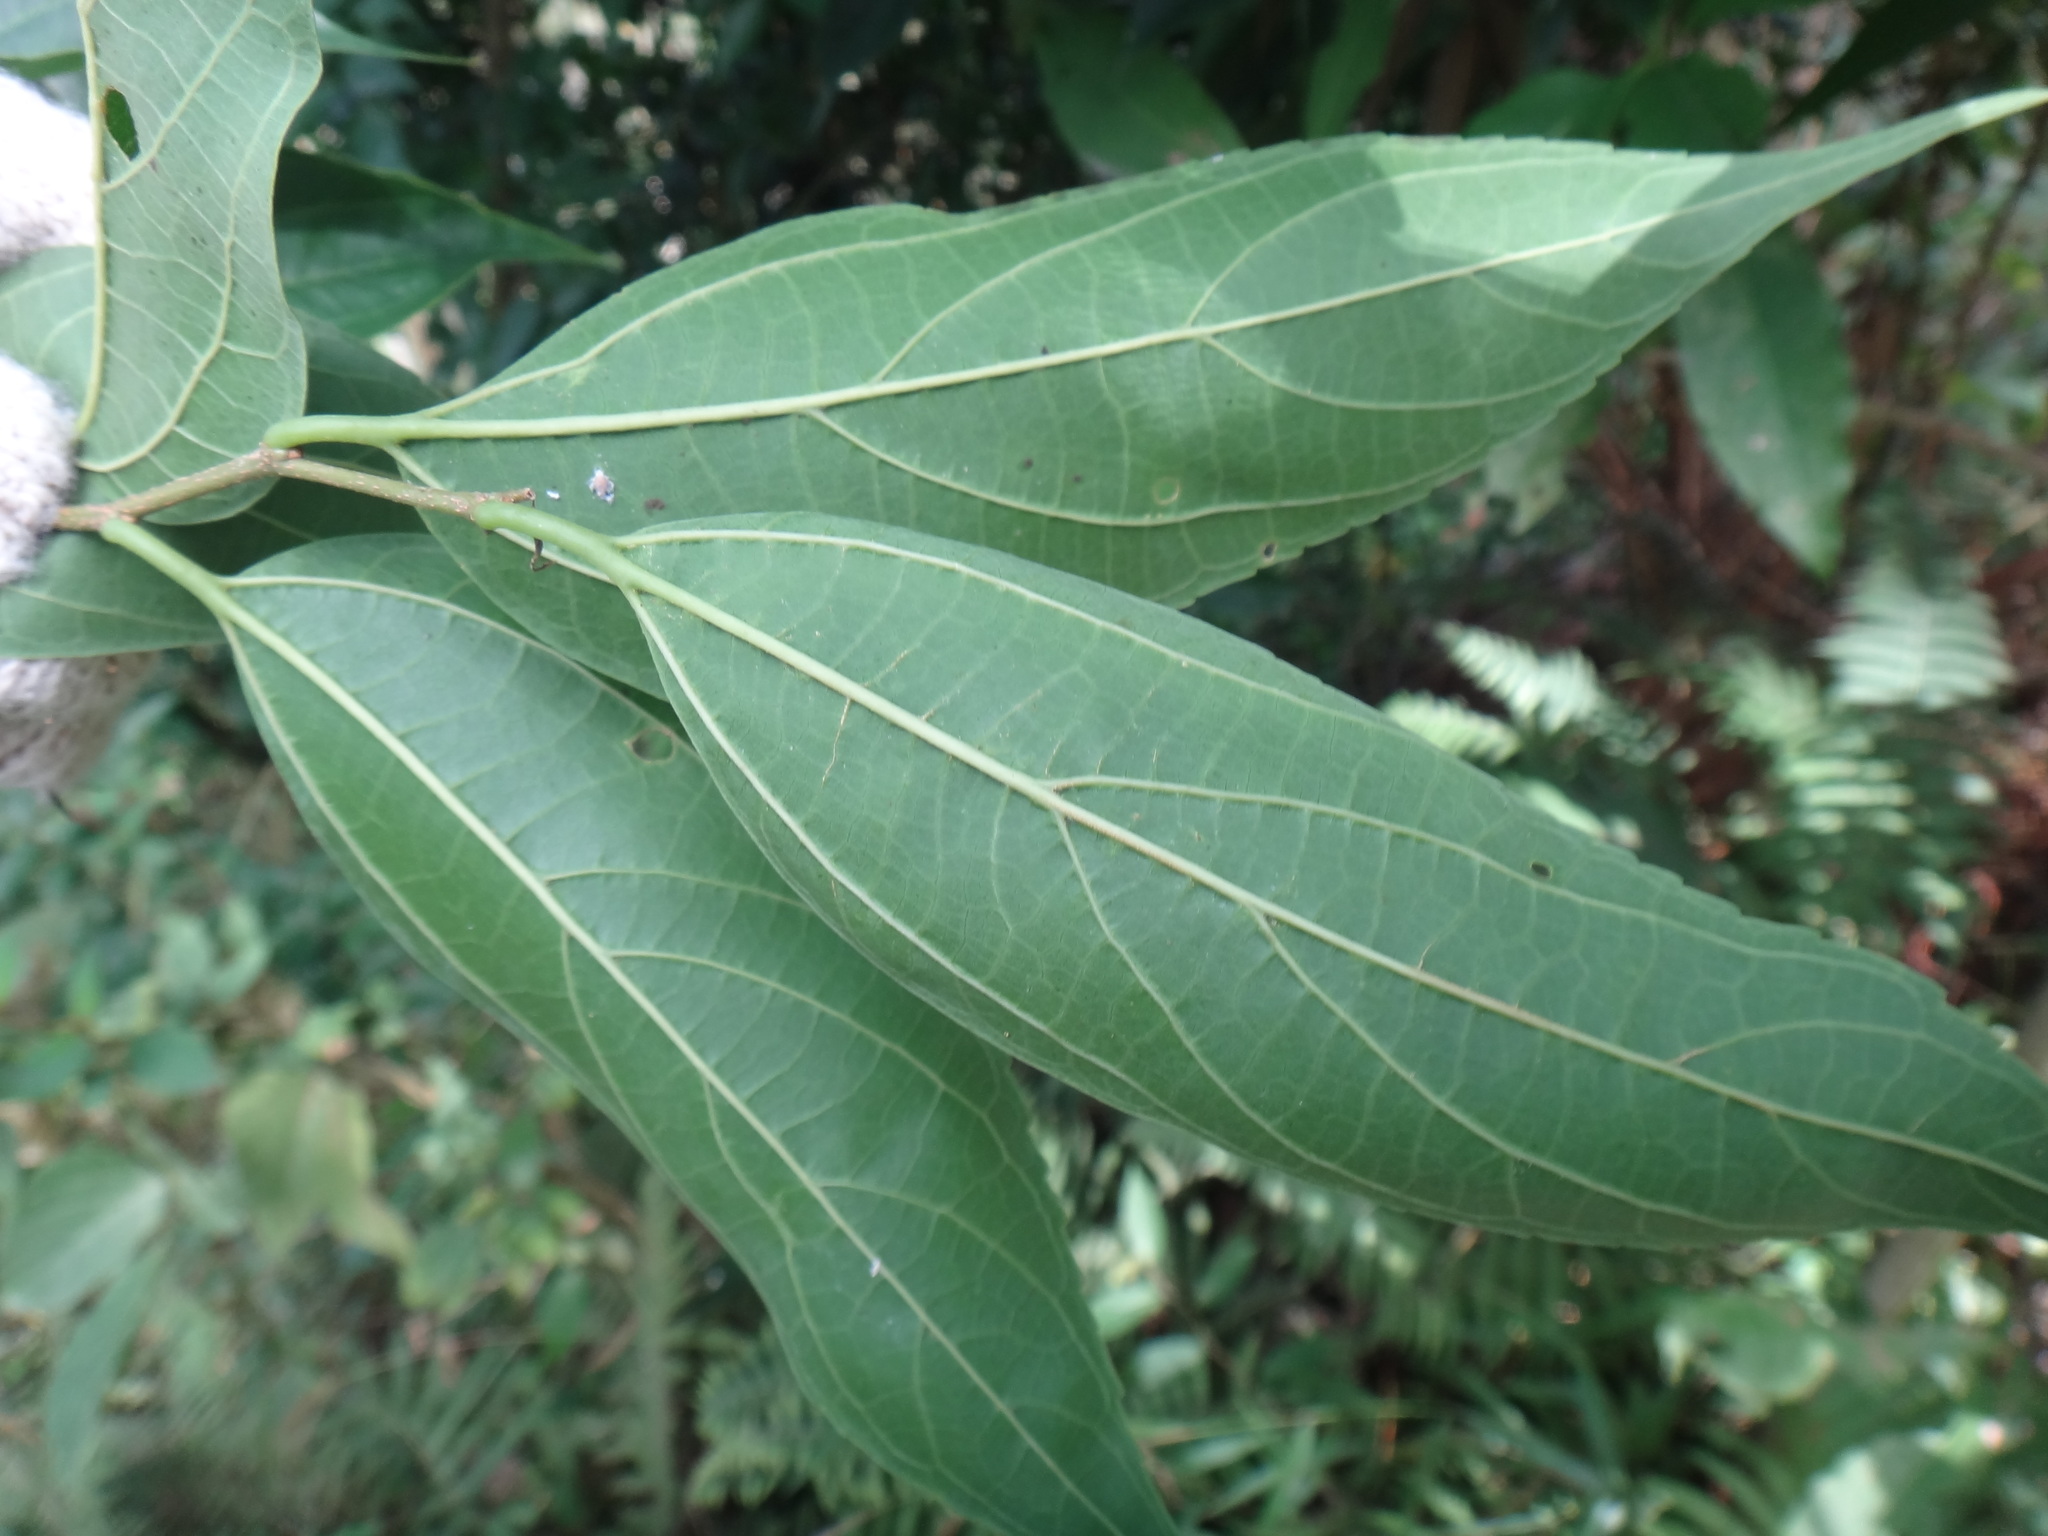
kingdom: Plantae
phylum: Tracheophyta
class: Magnoliopsida
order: Rosales
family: Cannabaceae
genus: Celtis
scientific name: Celtis tetrandra
